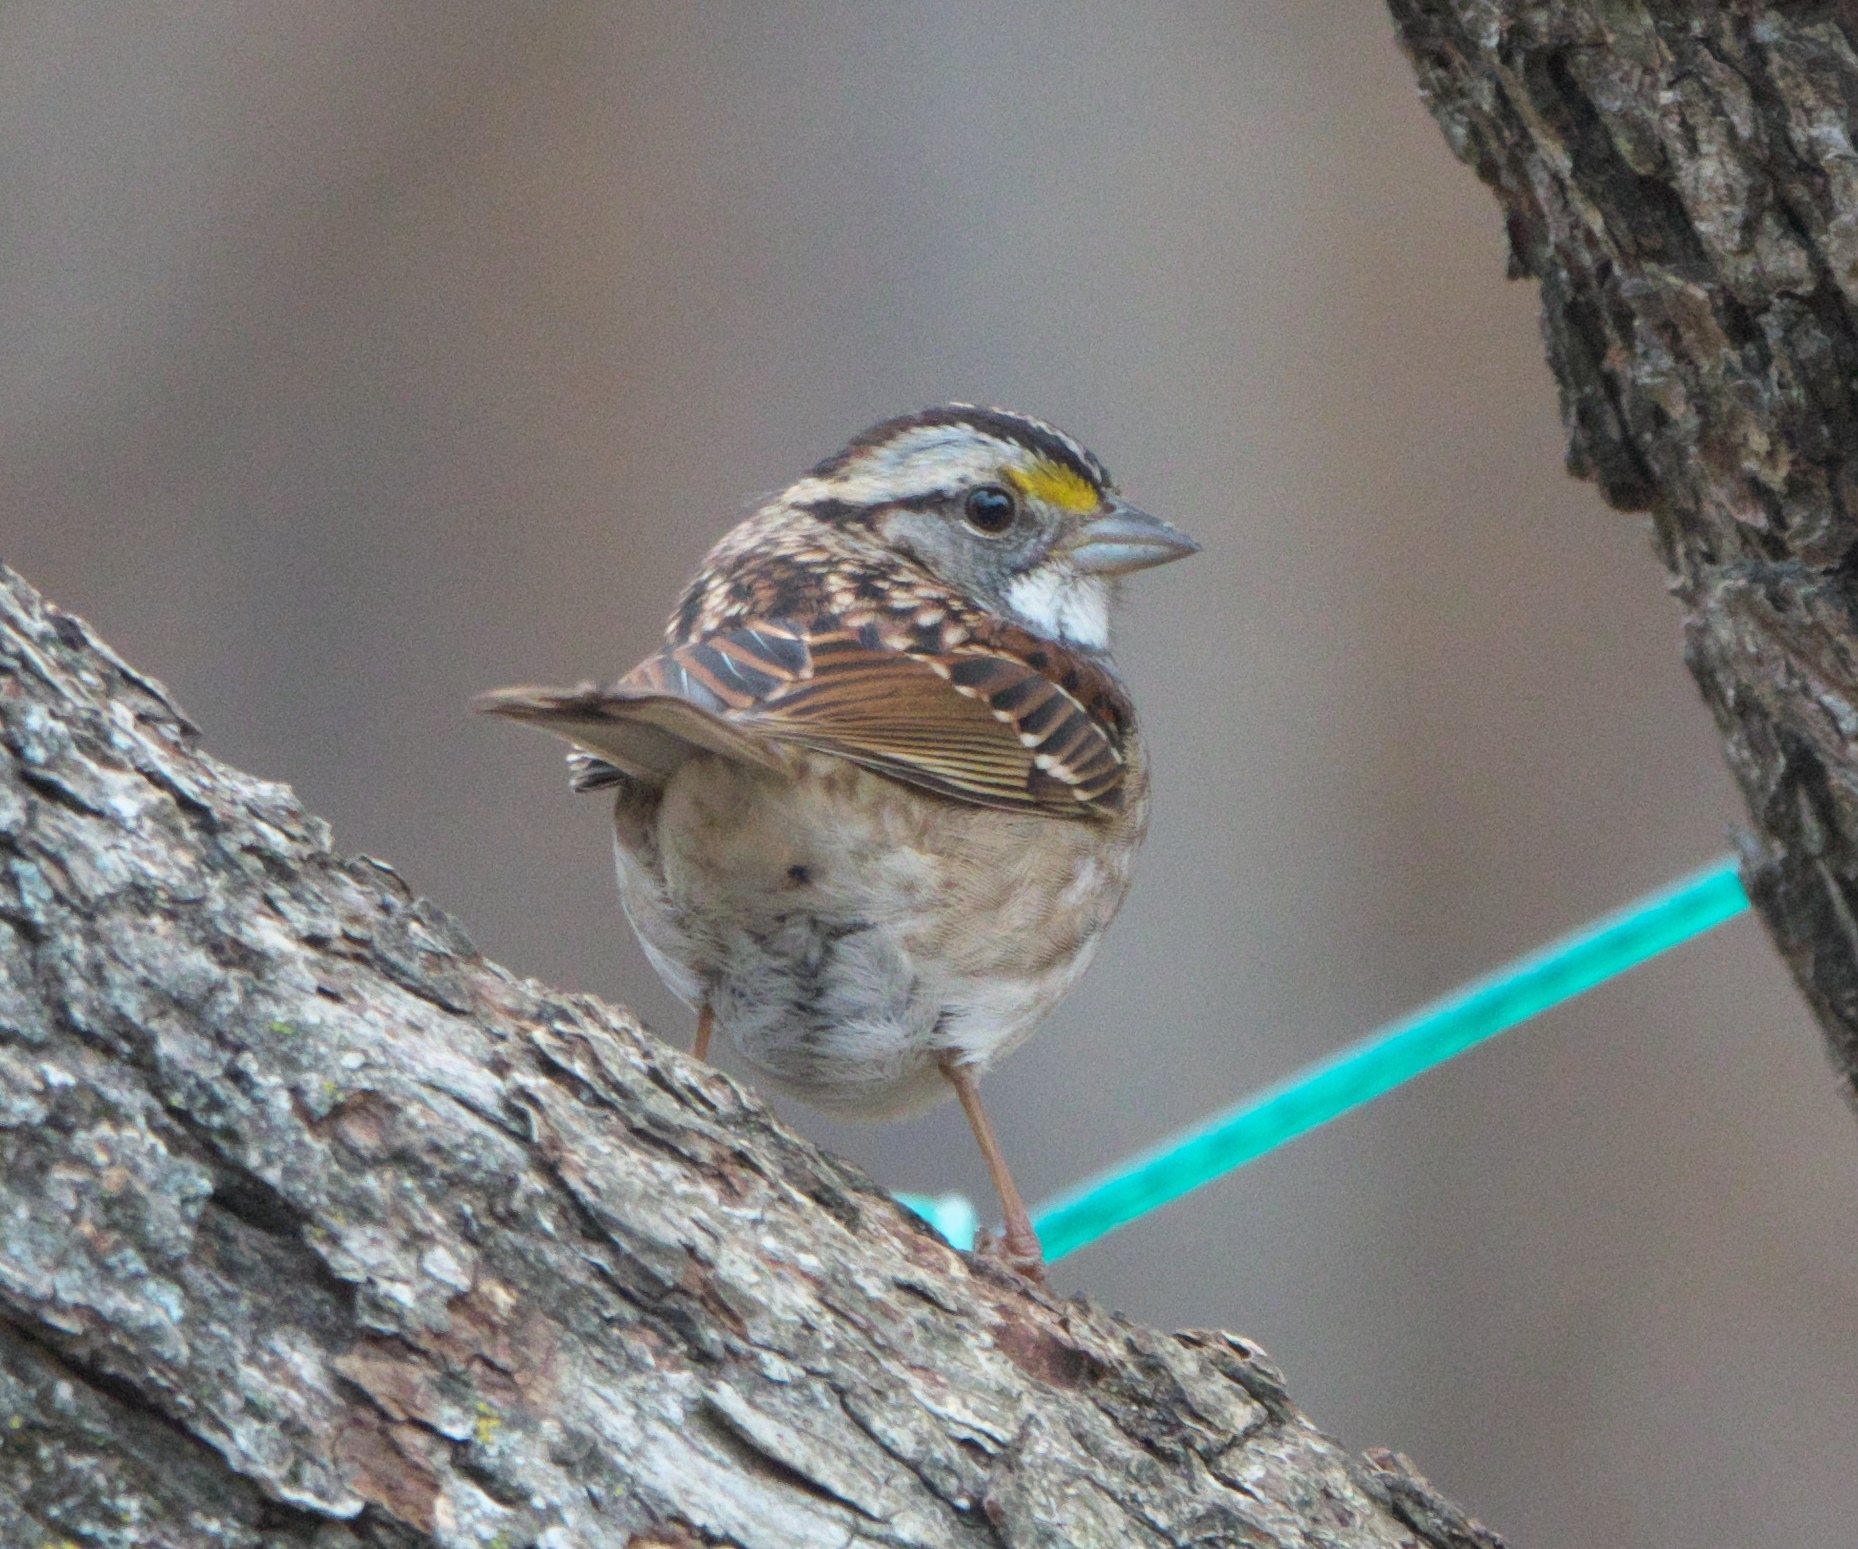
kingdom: Animalia
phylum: Chordata
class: Aves
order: Passeriformes
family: Passerellidae
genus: Zonotrichia
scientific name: Zonotrichia albicollis
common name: White-throated sparrow
